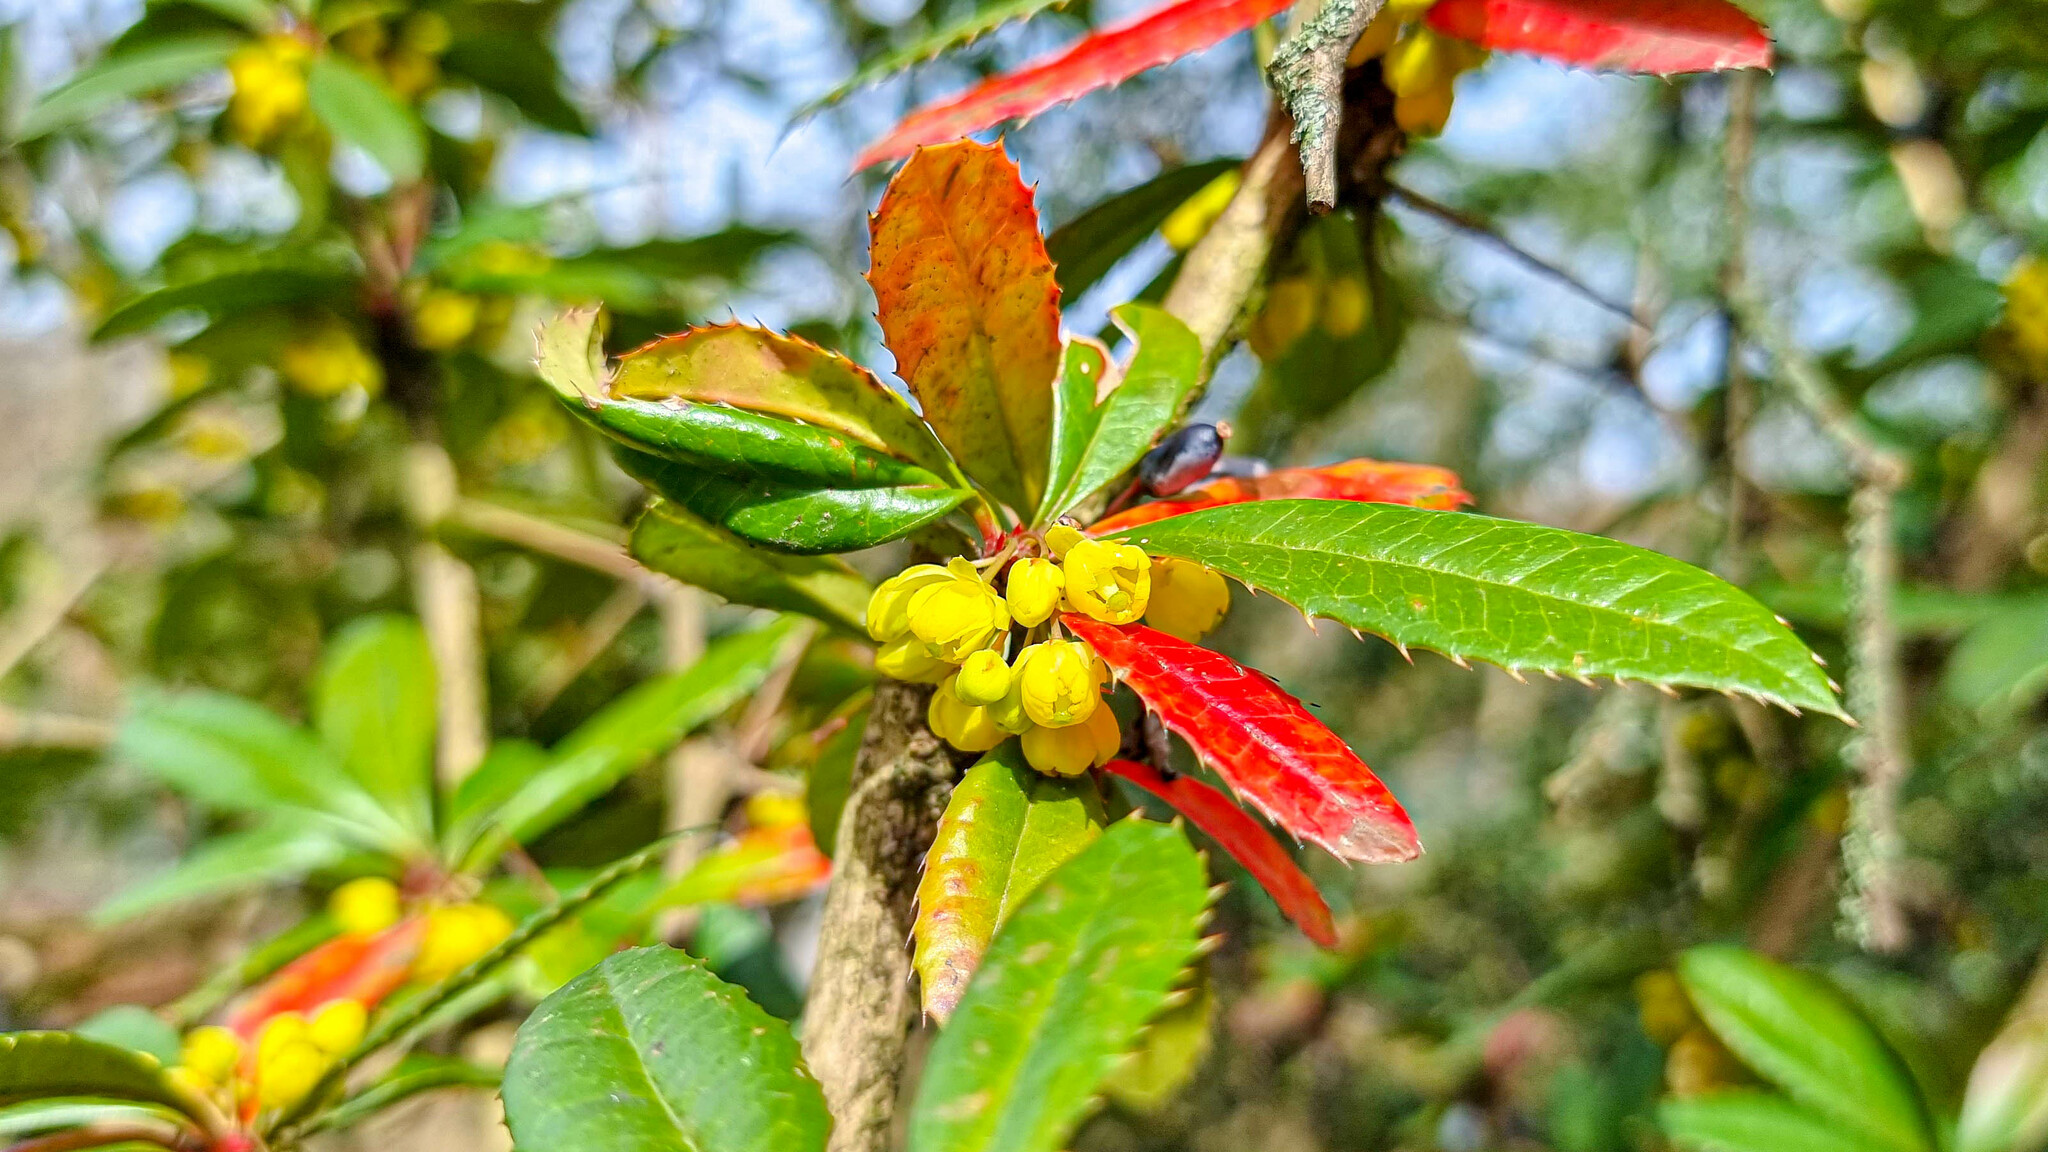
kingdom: Plantae
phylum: Tracheophyta
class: Magnoliopsida
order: Ranunculales
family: Berberidaceae
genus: Berberis
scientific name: Berberis julianae
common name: Wintergreen barberry
